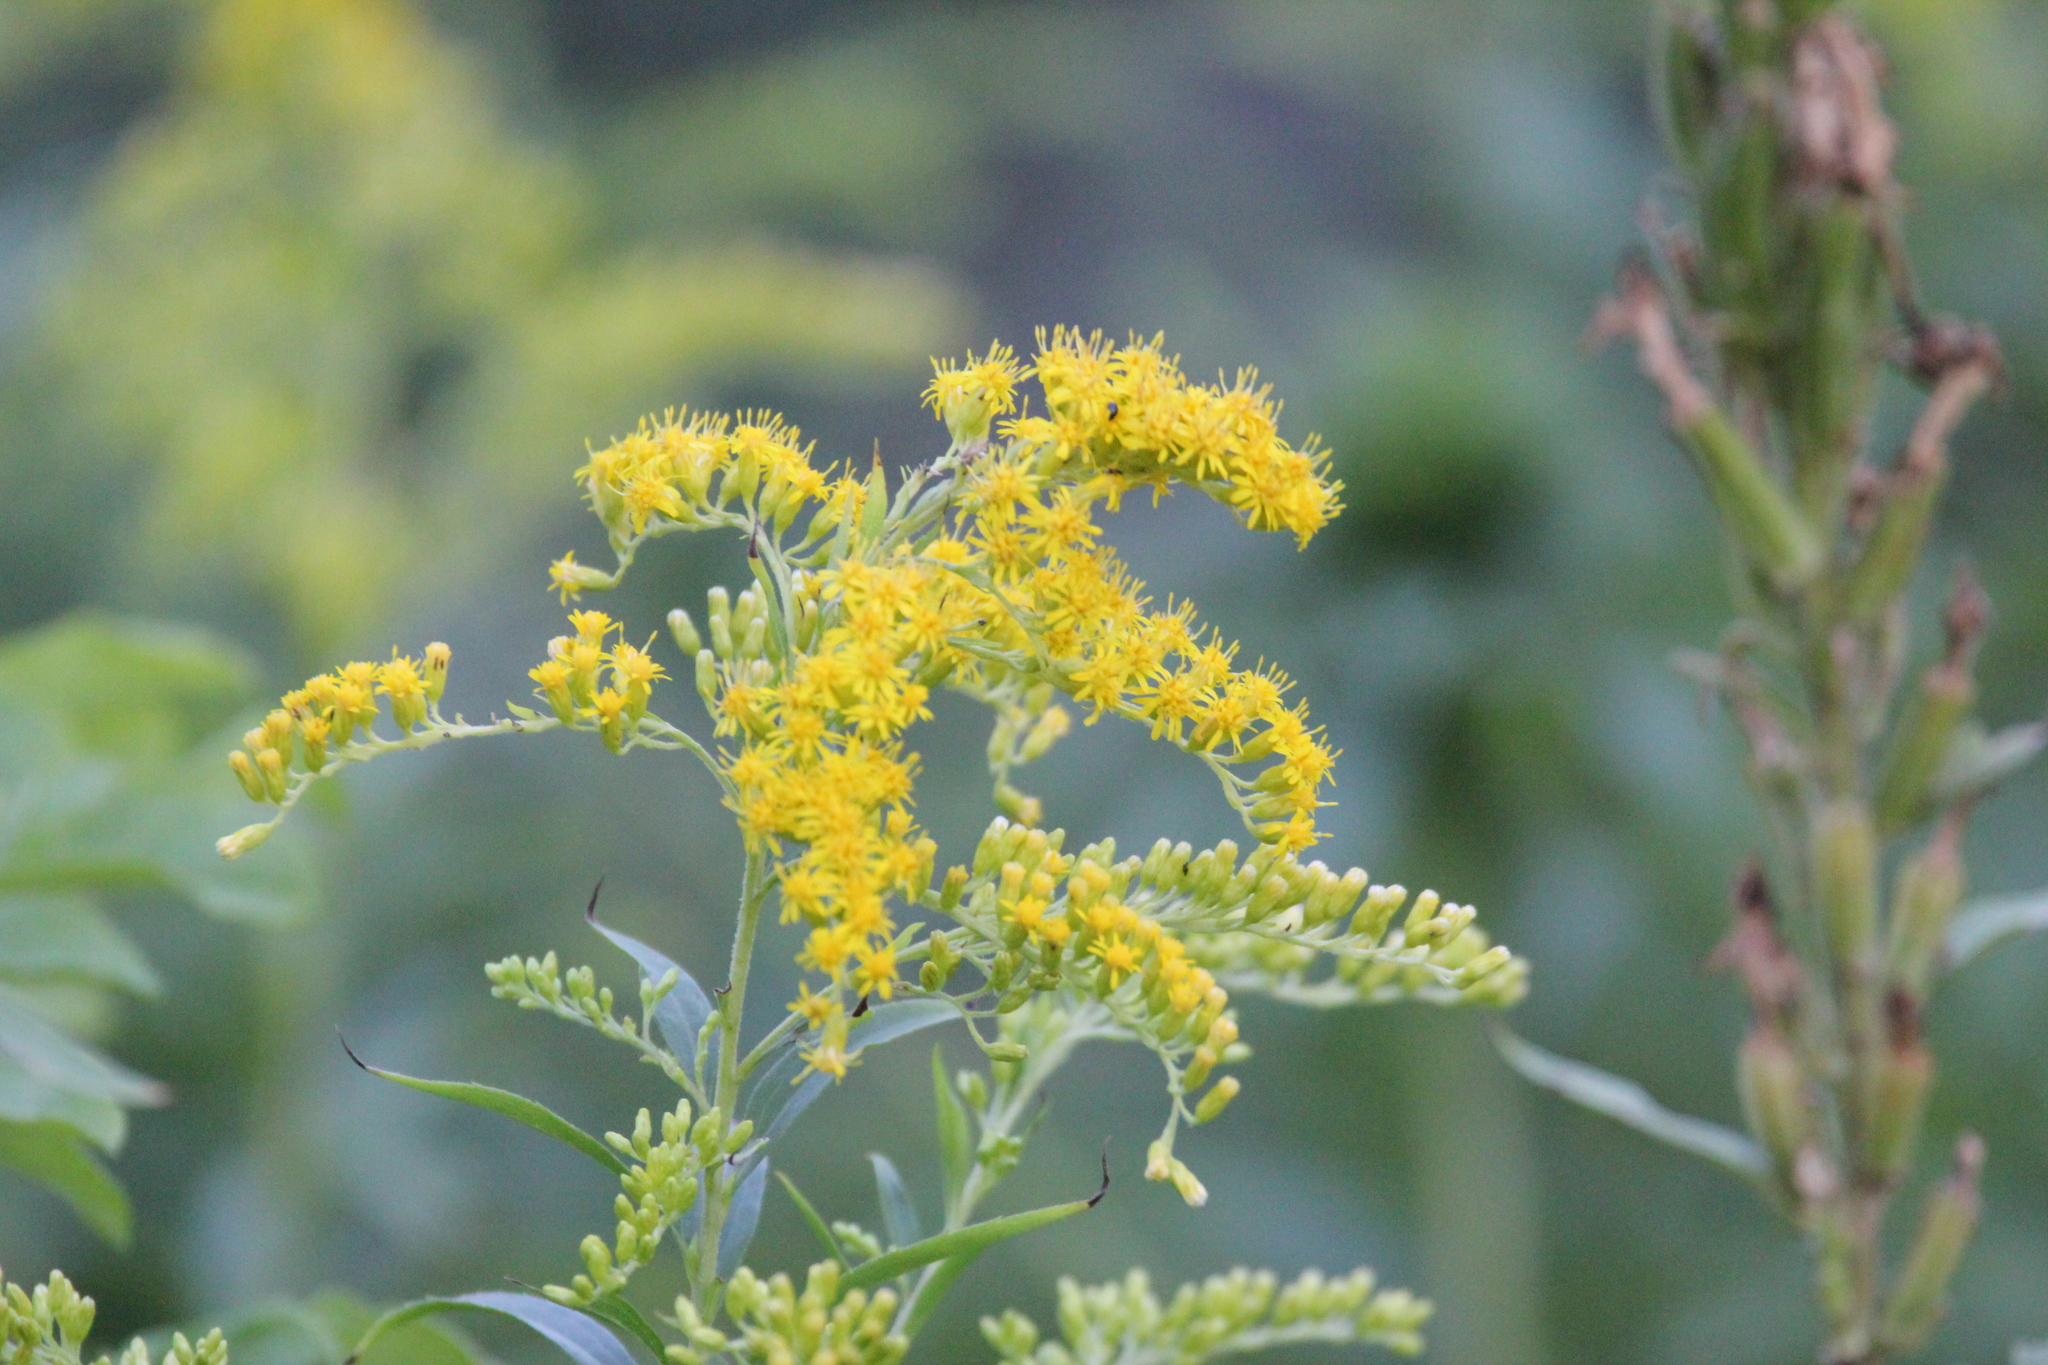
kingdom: Plantae
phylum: Tracheophyta
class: Magnoliopsida
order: Asterales
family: Asteraceae
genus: Solidago
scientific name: Solidago canadensis
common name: Canada goldenrod
